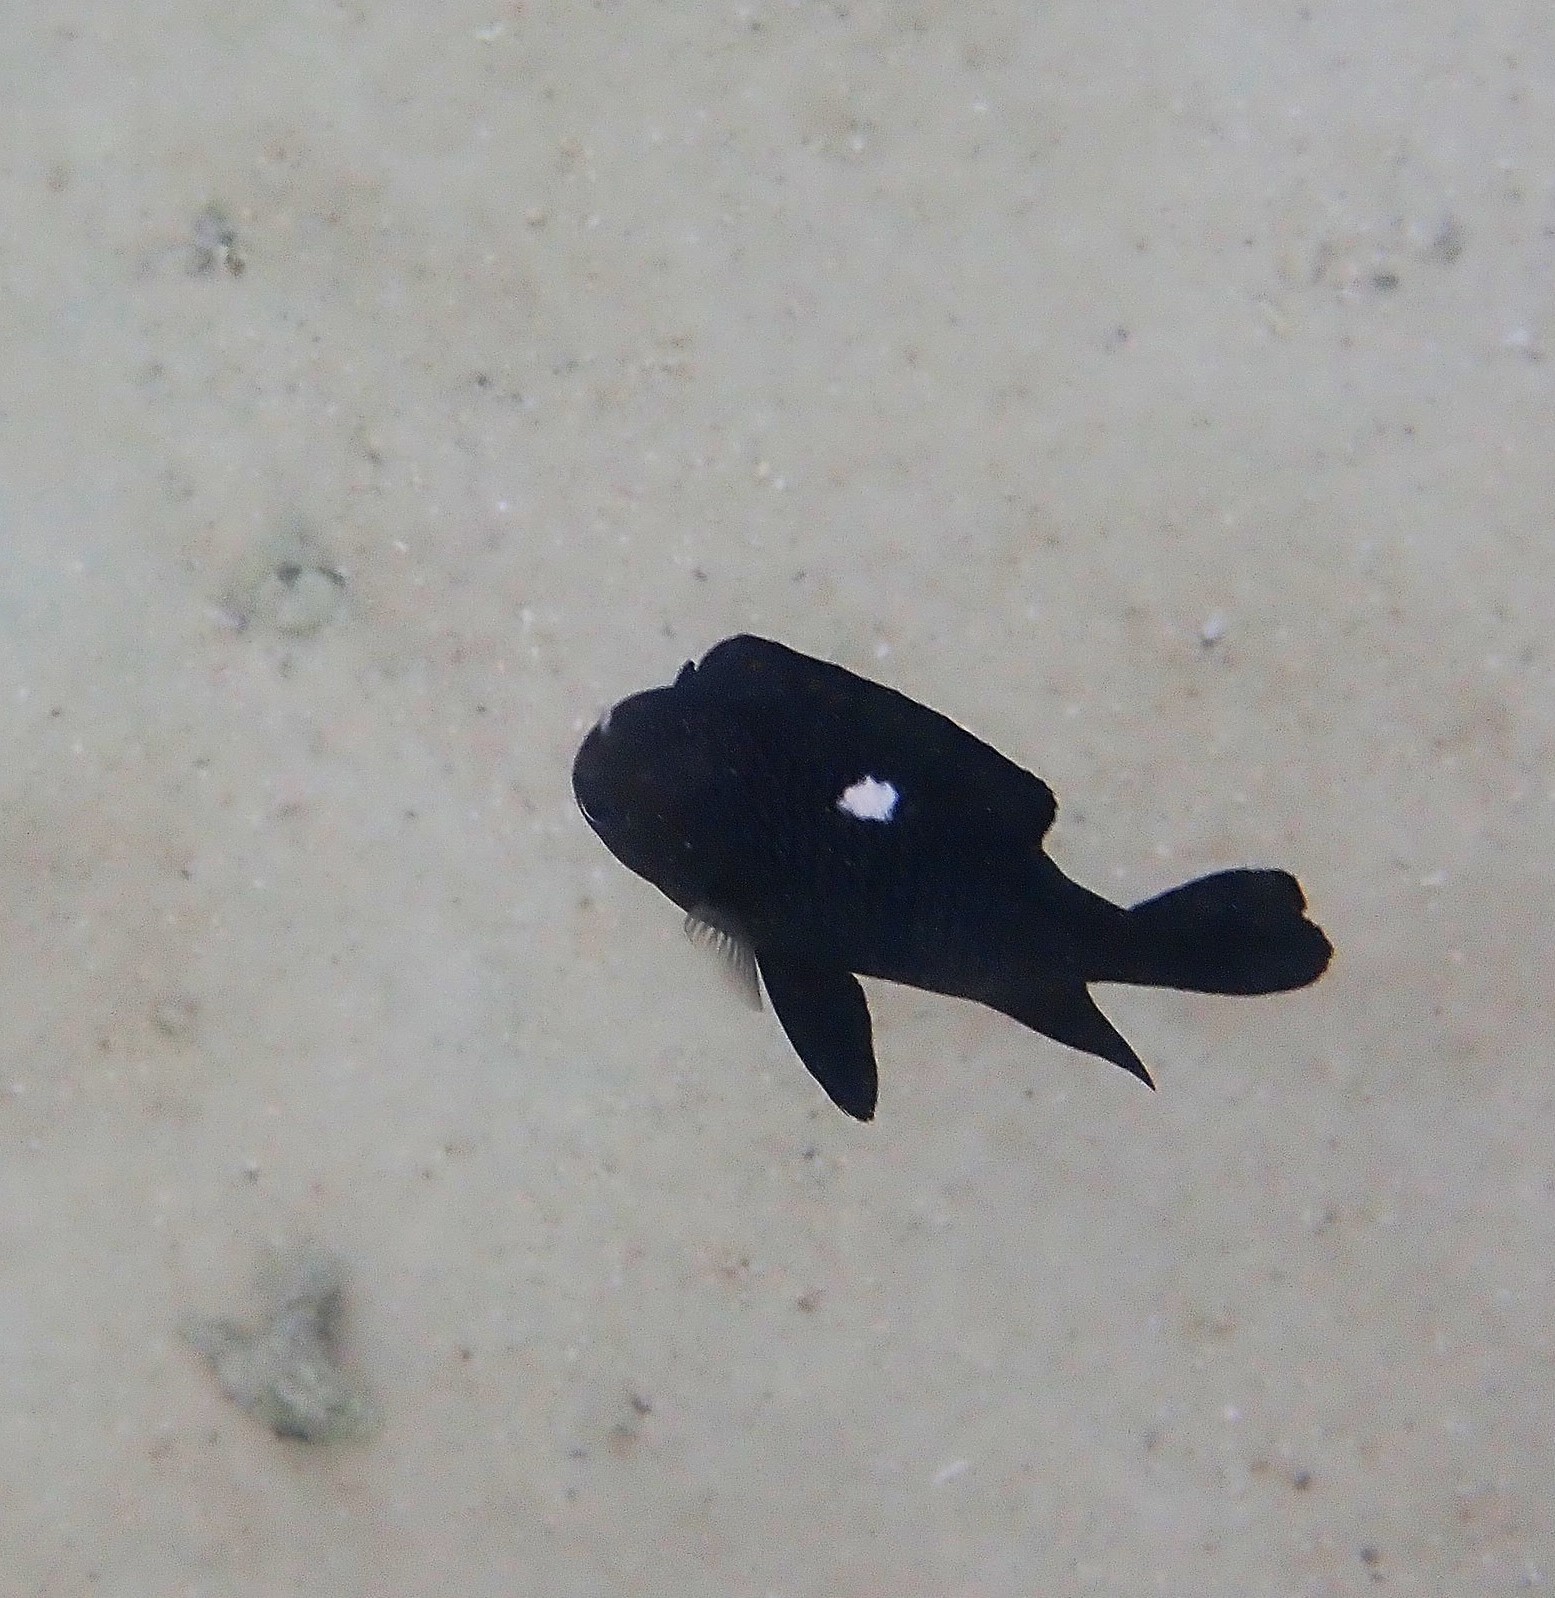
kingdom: Animalia
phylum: Chordata
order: Perciformes
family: Pomacentridae
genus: Dascyllus
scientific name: Dascyllus trimaculatus
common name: Threespot dascyllus
